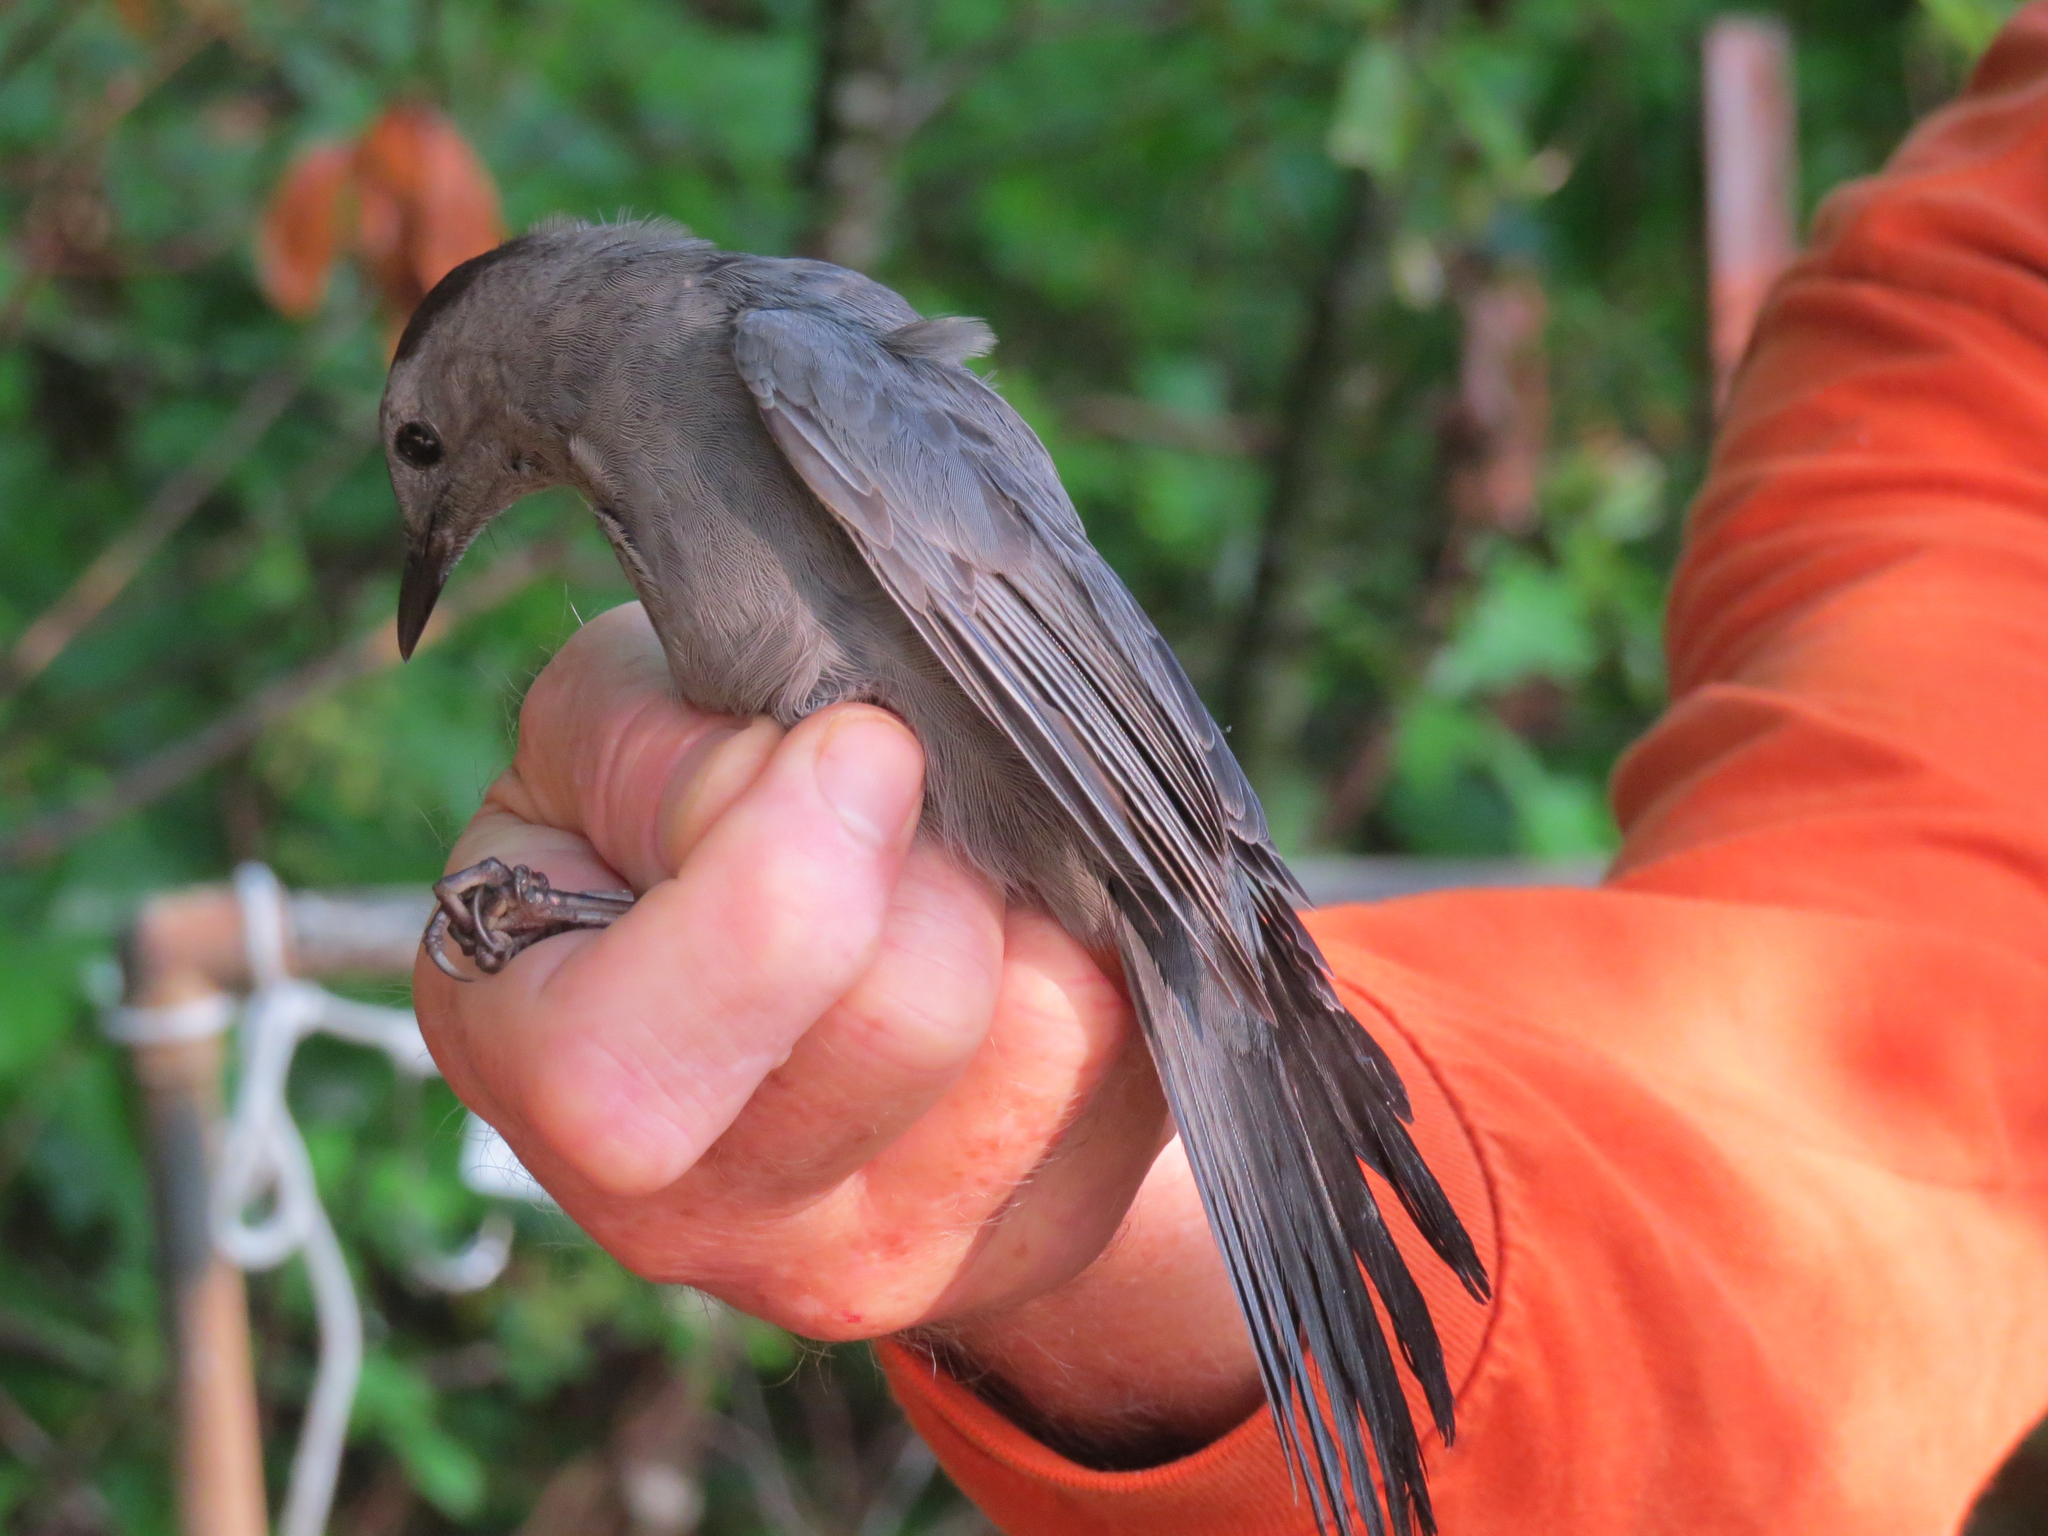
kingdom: Animalia
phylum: Chordata
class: Aves
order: Passeriformes
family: Mimidae
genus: Dumetella
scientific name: Dumetella carolinensis
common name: Gray catbird
